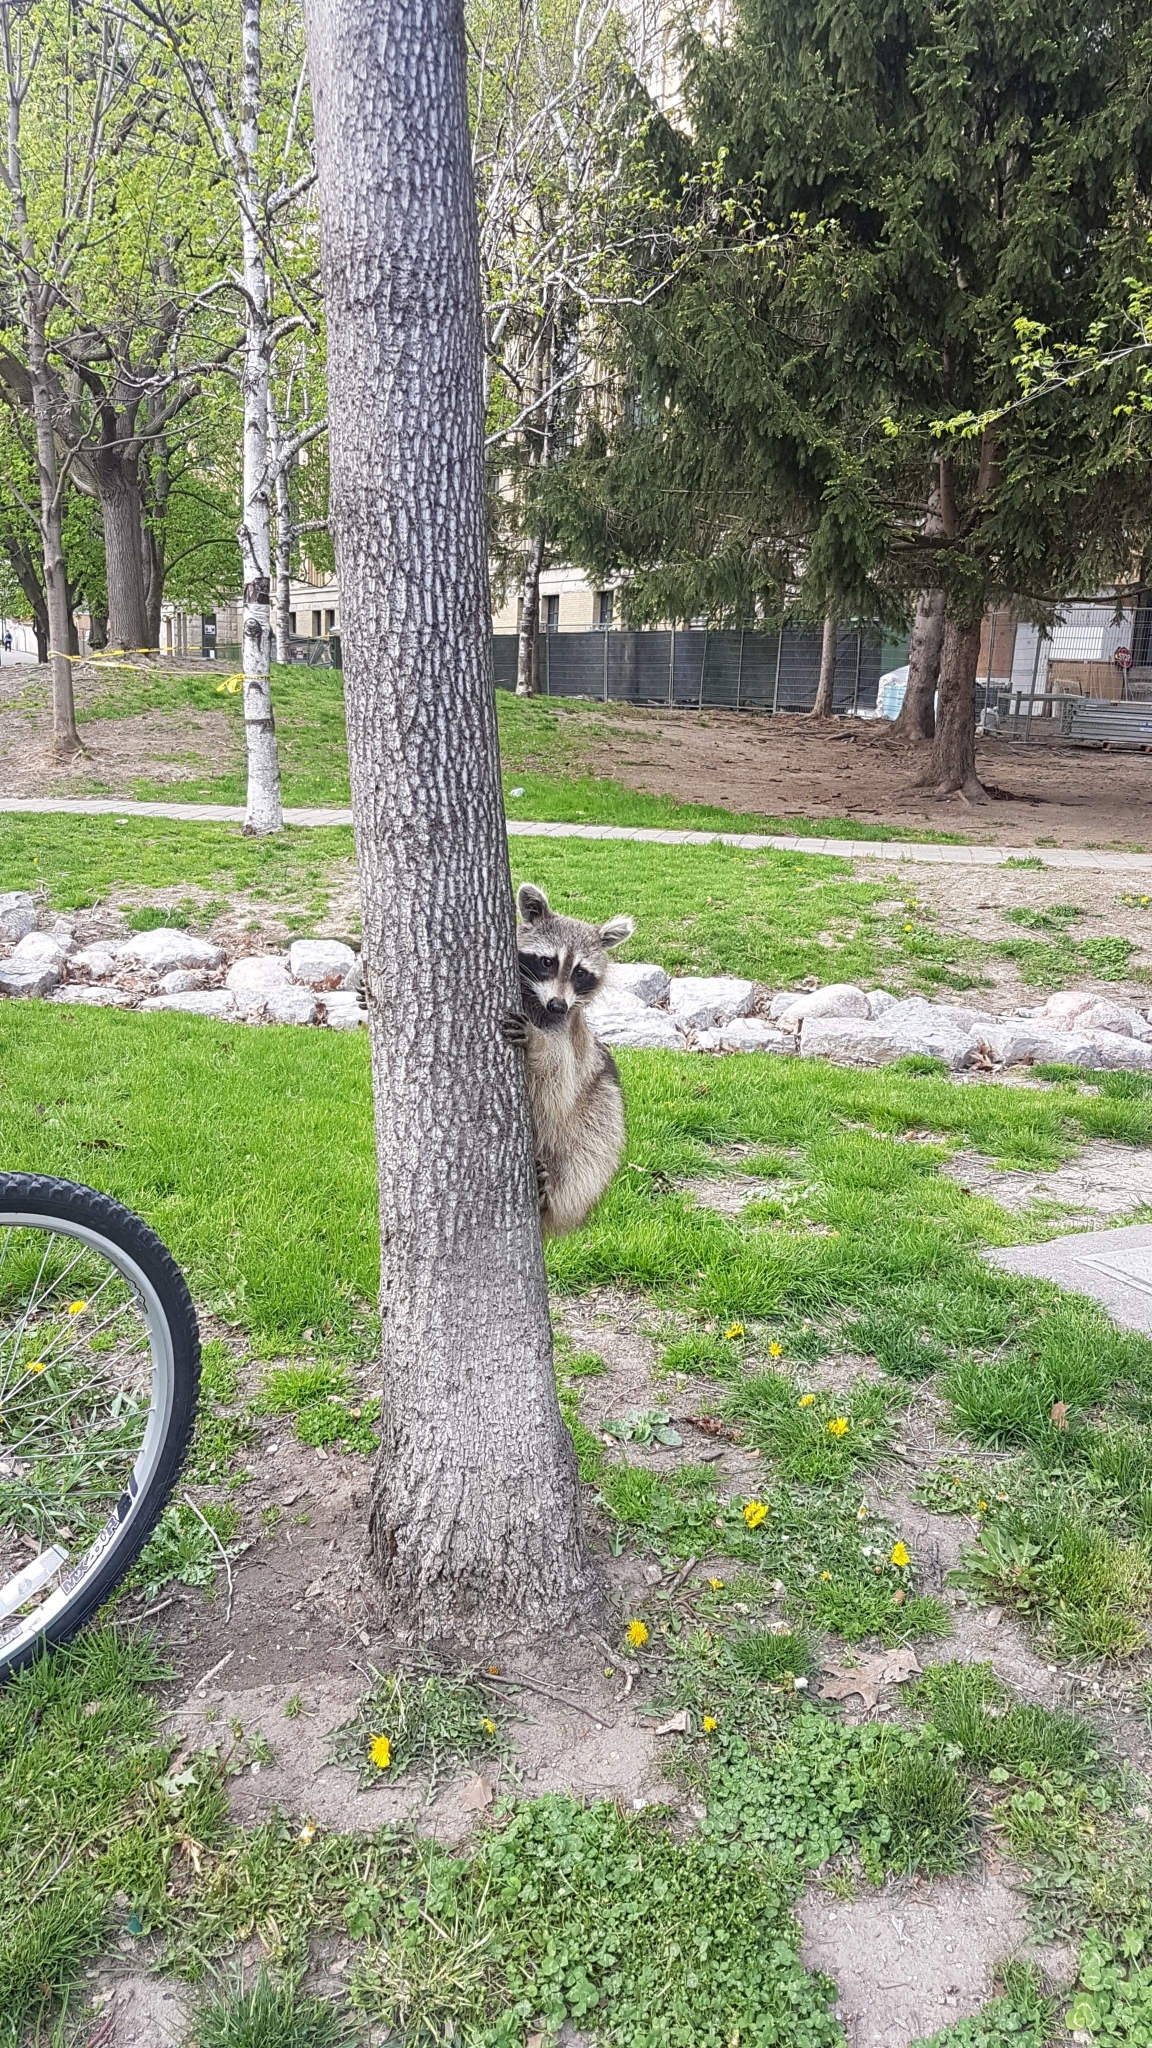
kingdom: Animalia
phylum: Chordata
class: Mammalia
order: Carnivora
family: Procyonidae
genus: Procyon
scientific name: Procyon lotor
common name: Raccoon
